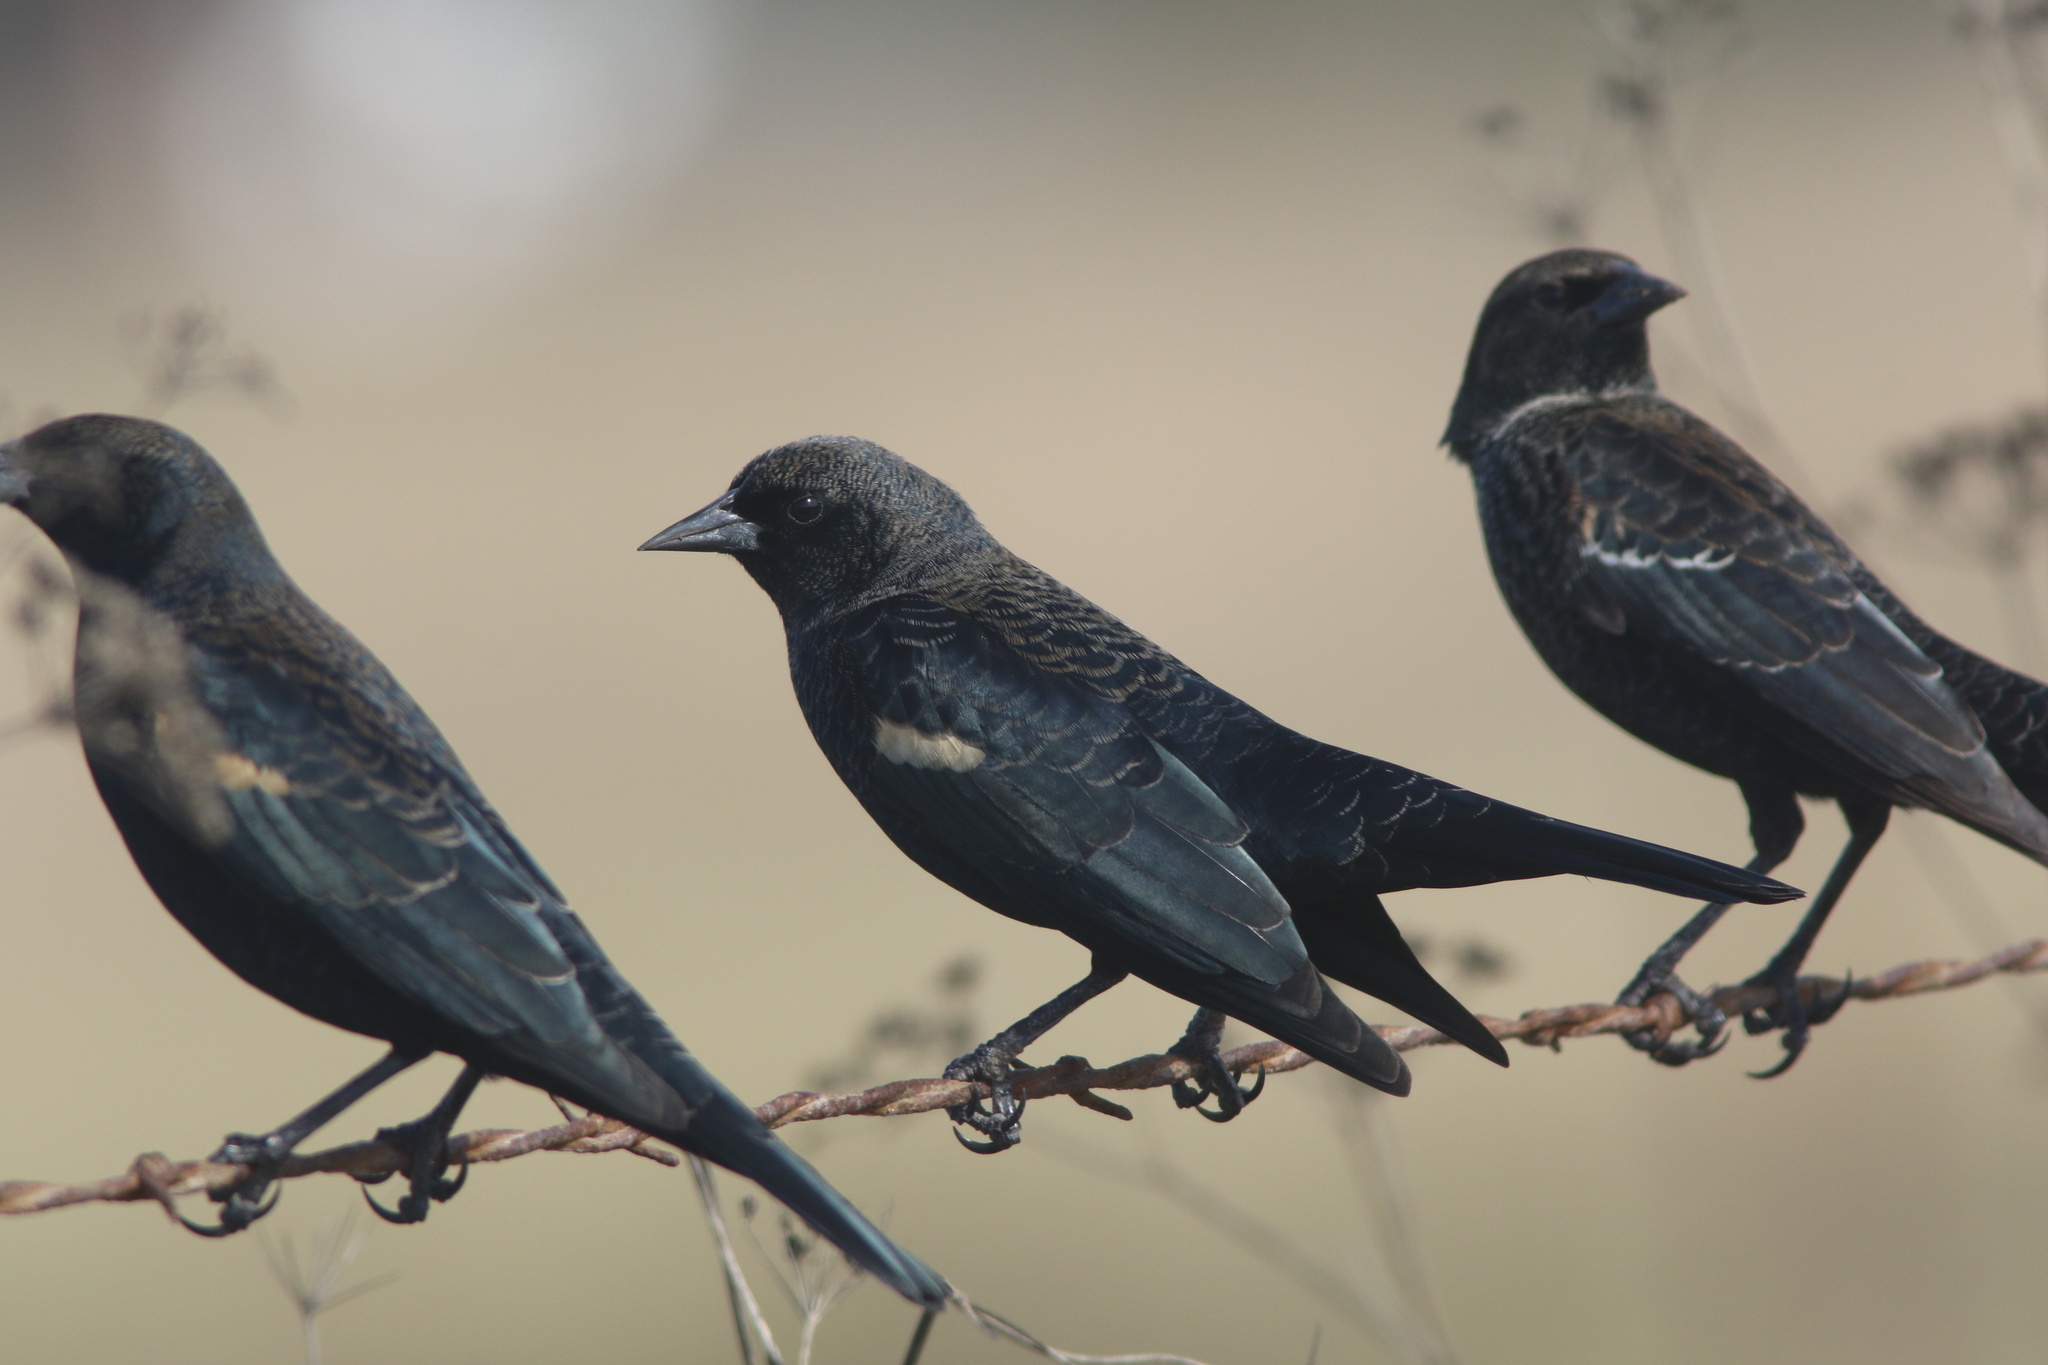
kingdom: Animalia
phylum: Chordata
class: Aves
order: Passeriformes
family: Icteridae
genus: Agelaius
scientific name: Agelaius tricolor
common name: Tricolored blackbird
